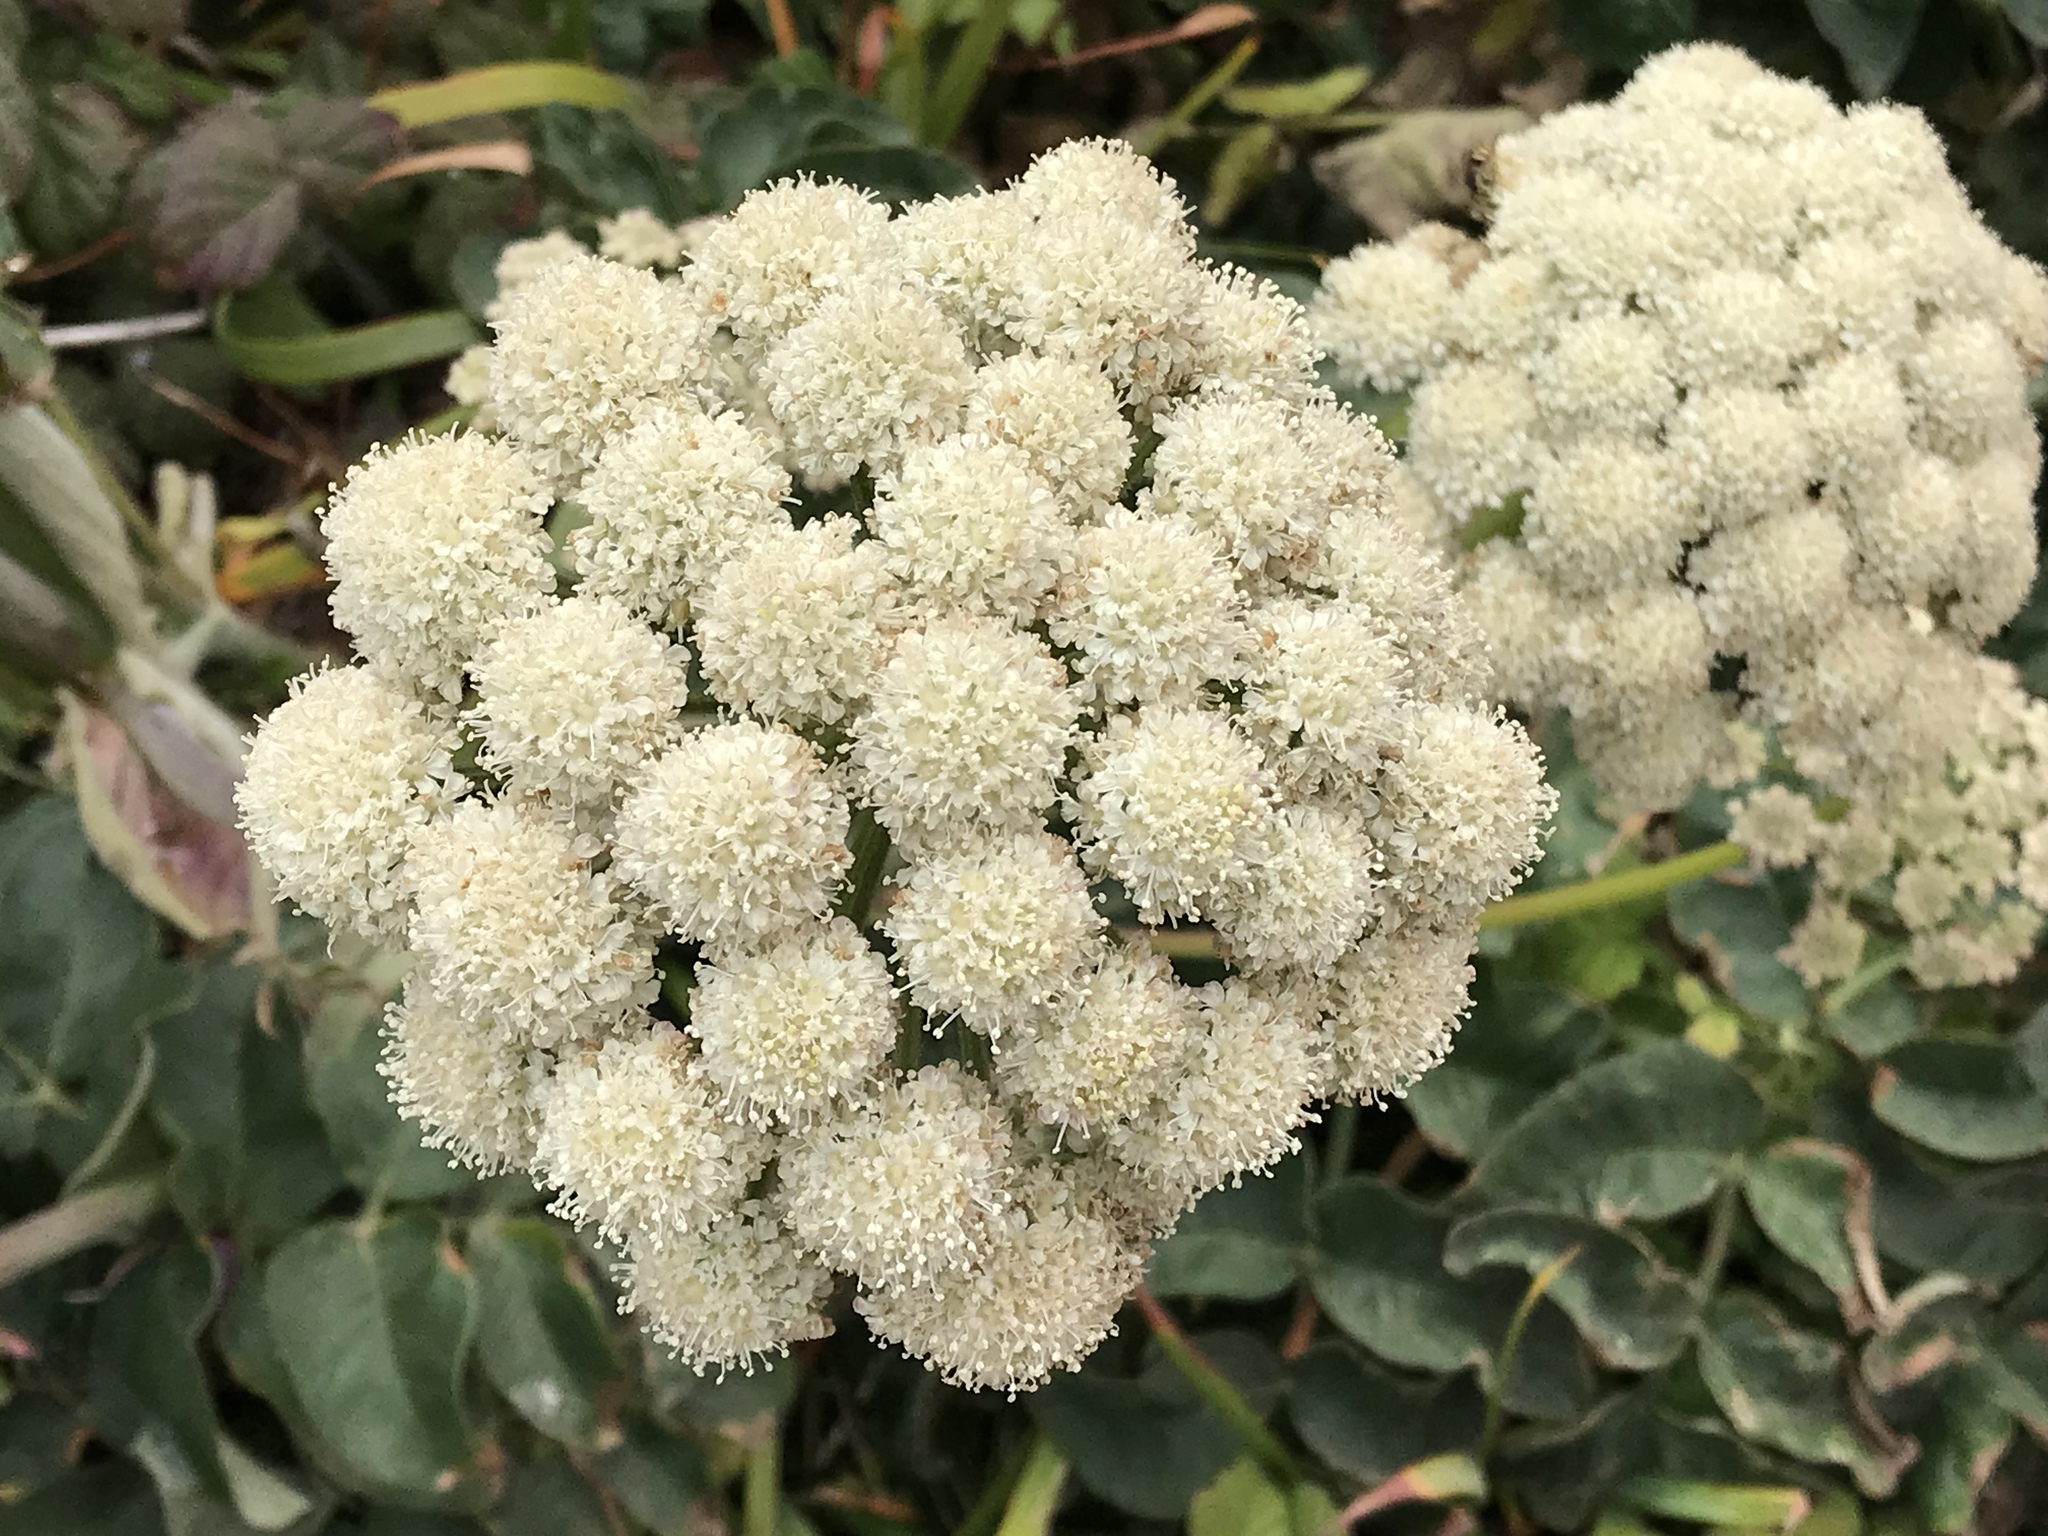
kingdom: Plantae
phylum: Tracheophyta
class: Magnoliopsida
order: Apiales
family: Apiaceae
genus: Angelica
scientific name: Angelica hendersonii
